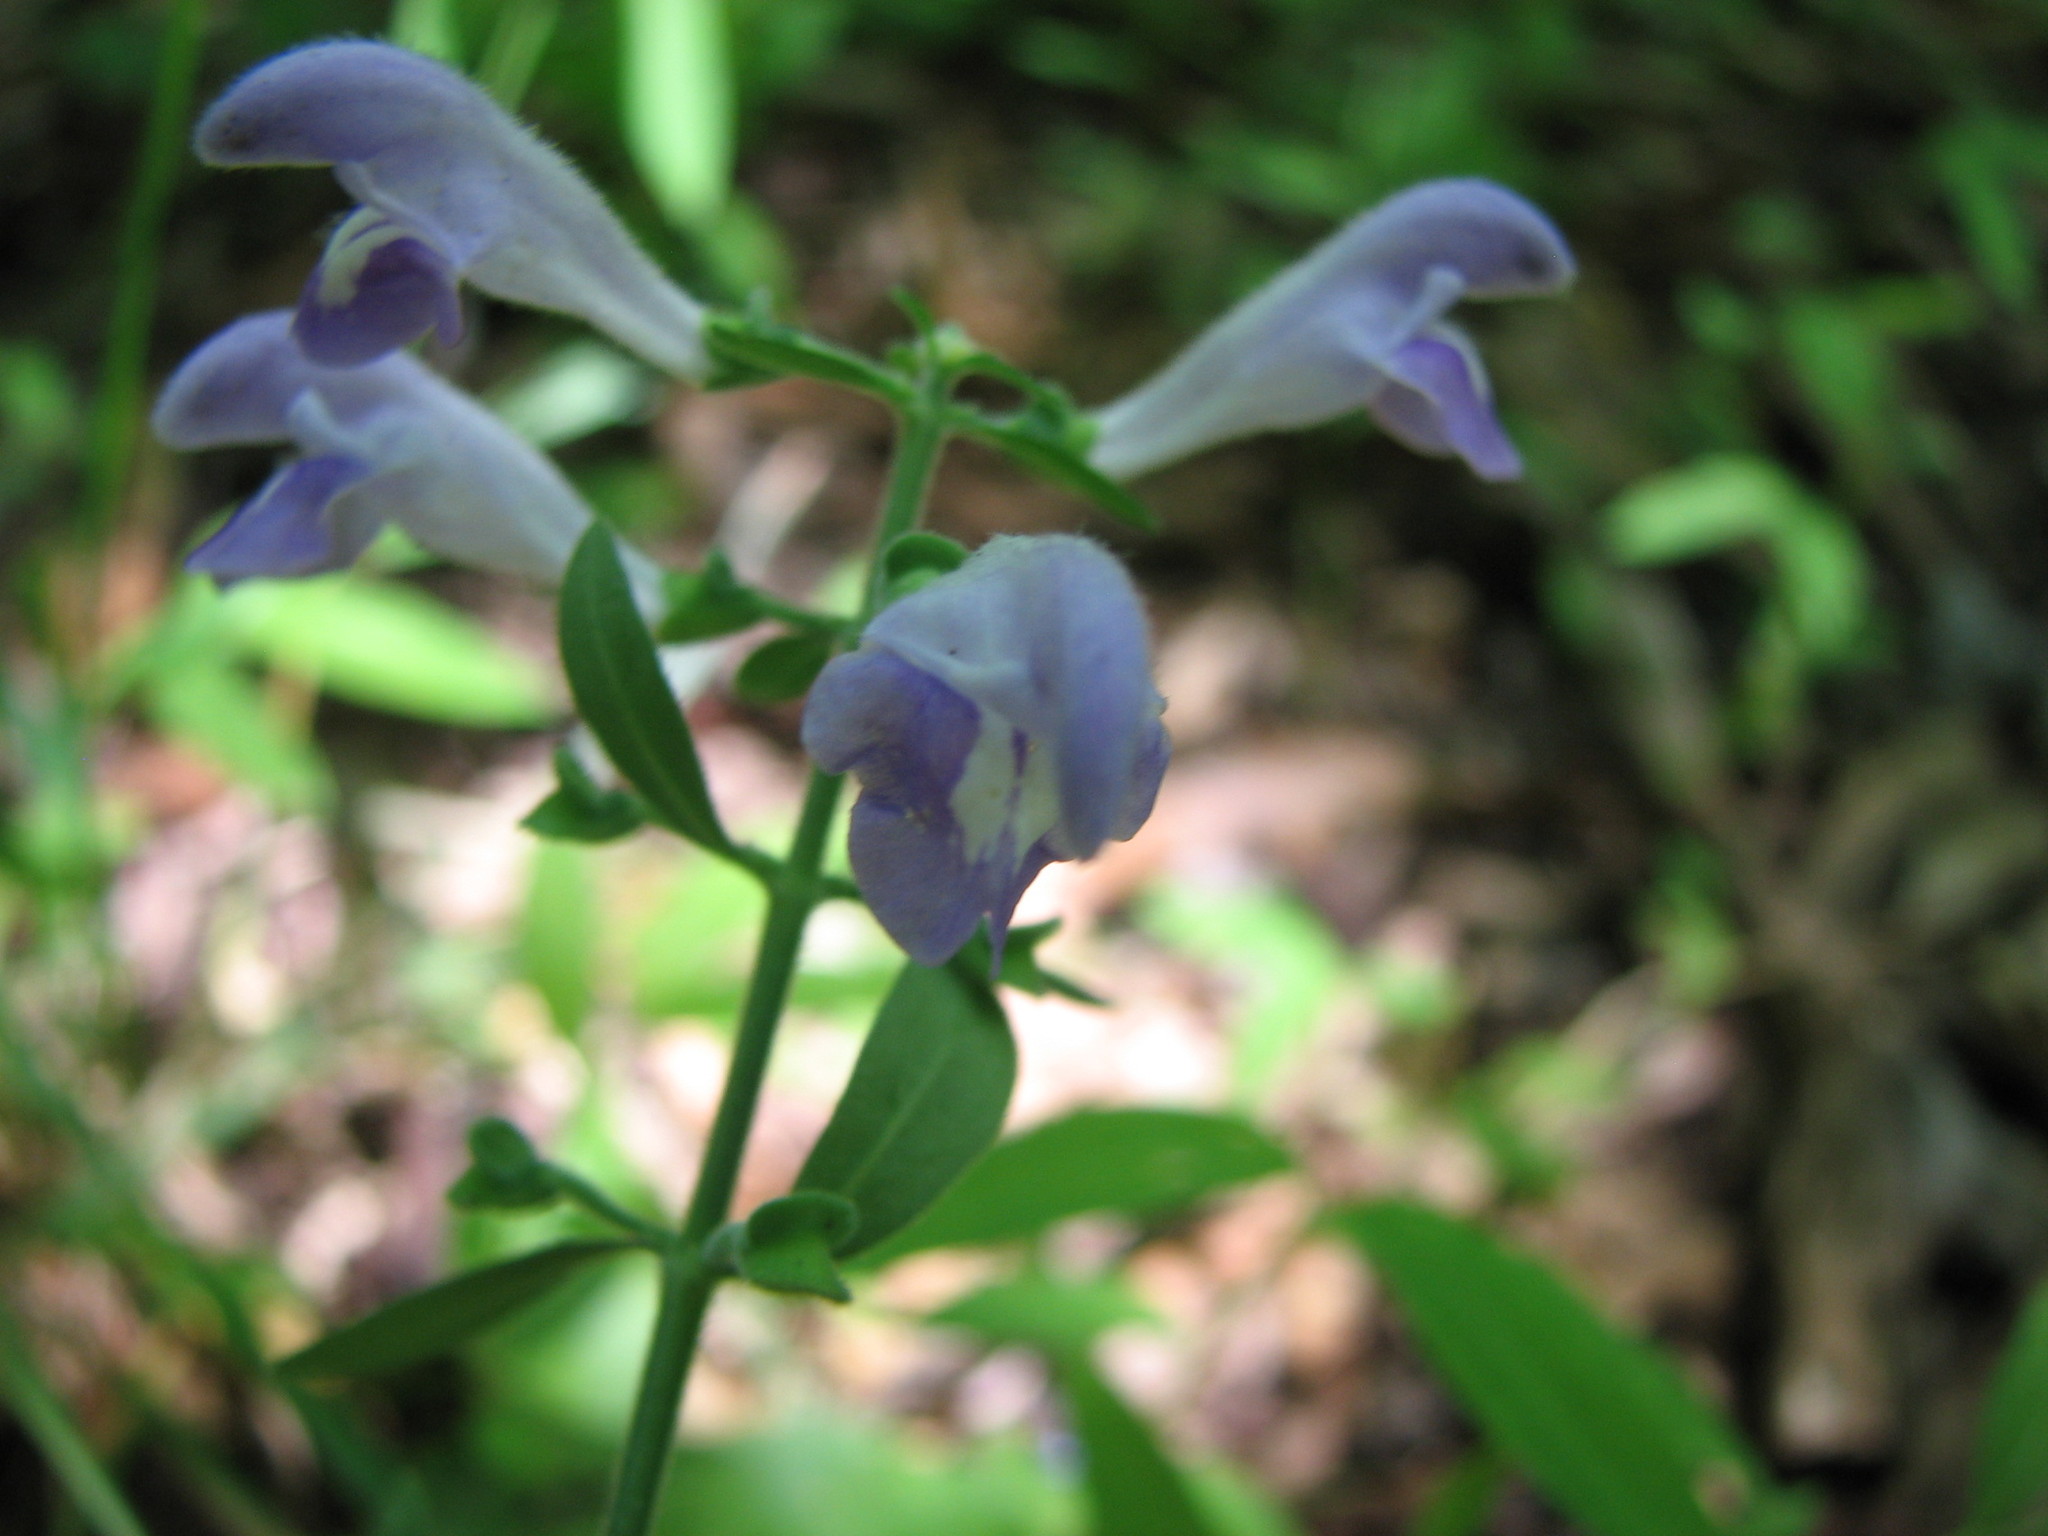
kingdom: Plantae
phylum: Tracheophyta
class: Magnoliopsida
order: Lamiales
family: Lamiaceae
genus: Scutellaria
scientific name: Scutellaria integrifolia
